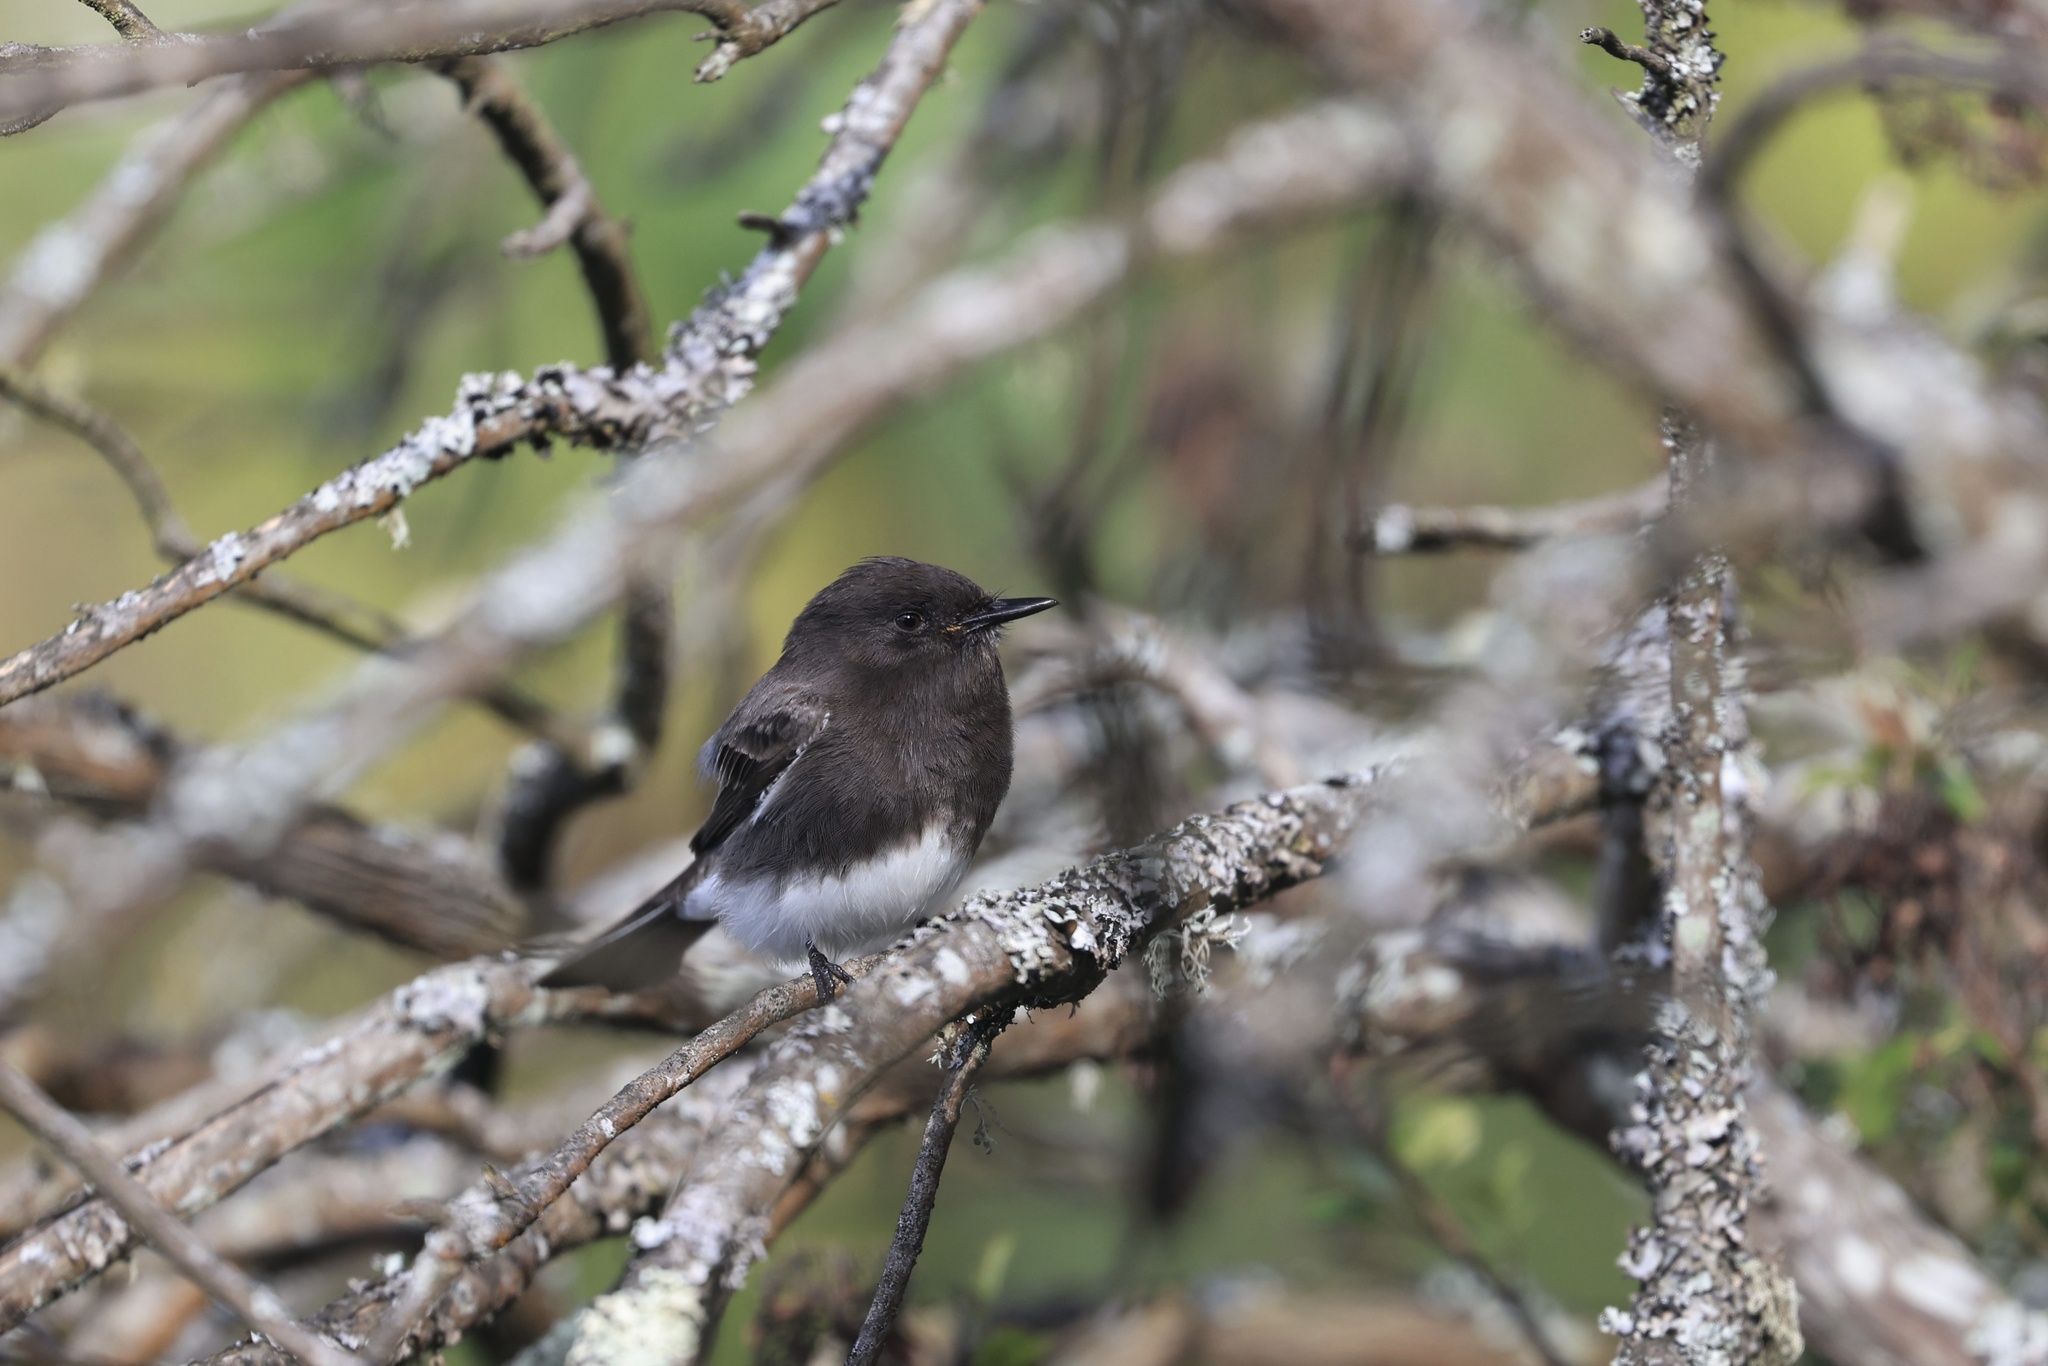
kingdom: Animalia
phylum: Chordata
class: Aves
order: Passeriformes
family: Tyrannidae
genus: Sayornis
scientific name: Sayornis nigricans
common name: Black phoebe
